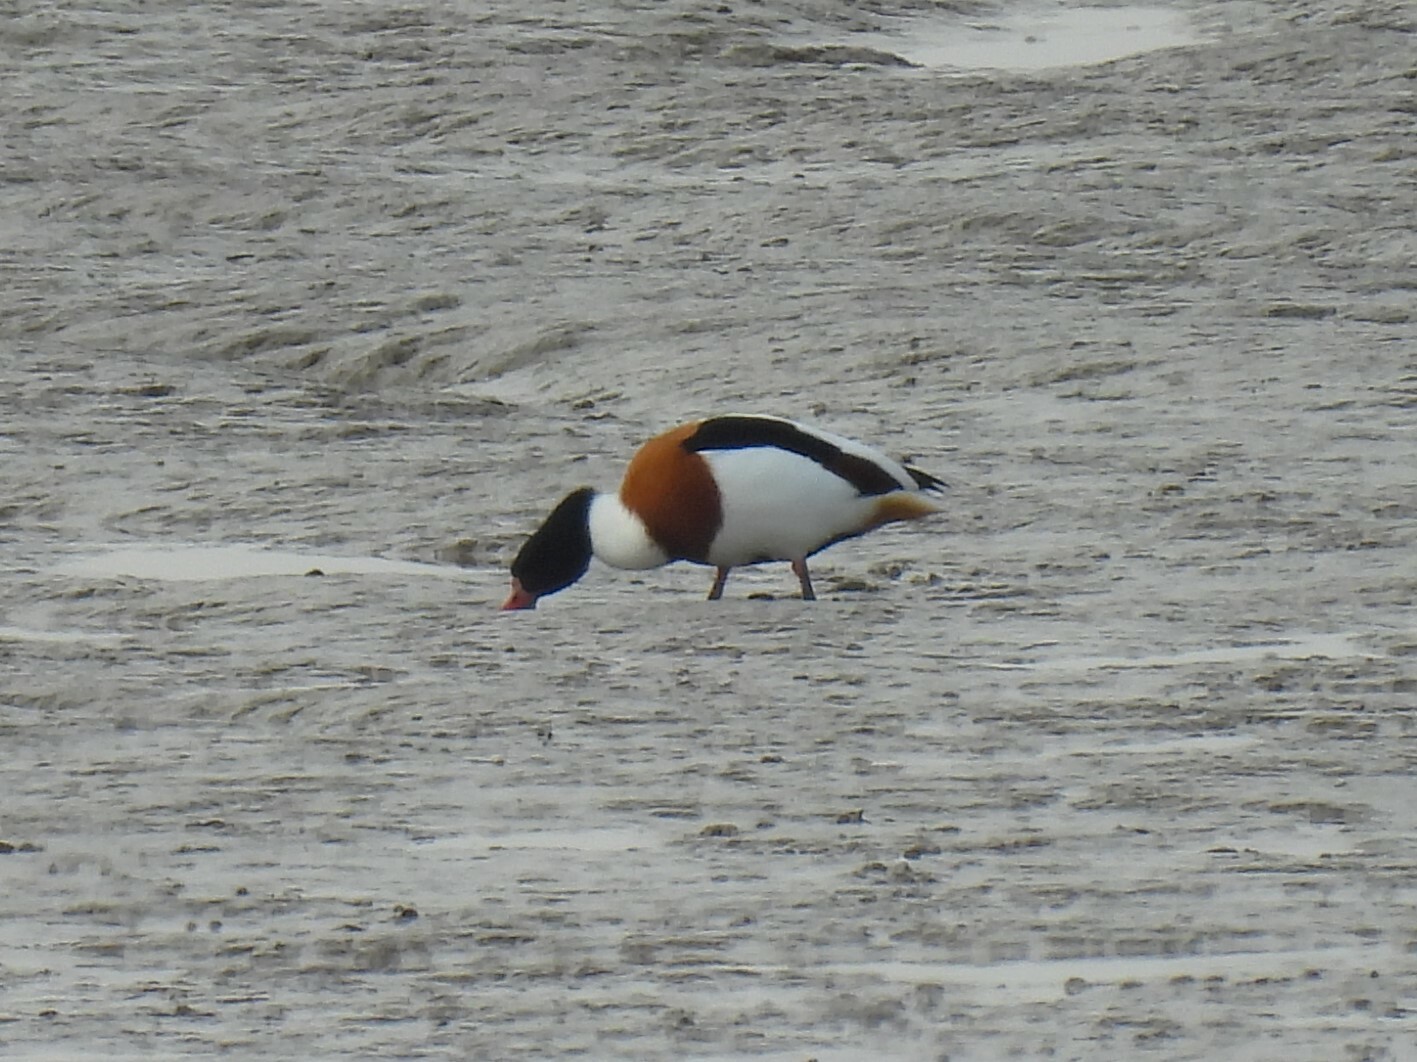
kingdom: Animalia
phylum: Chordata
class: Aves
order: Anseriformes
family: Anatidae
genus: Tadorna
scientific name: Tadorna tadorna
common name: Common shelduck
